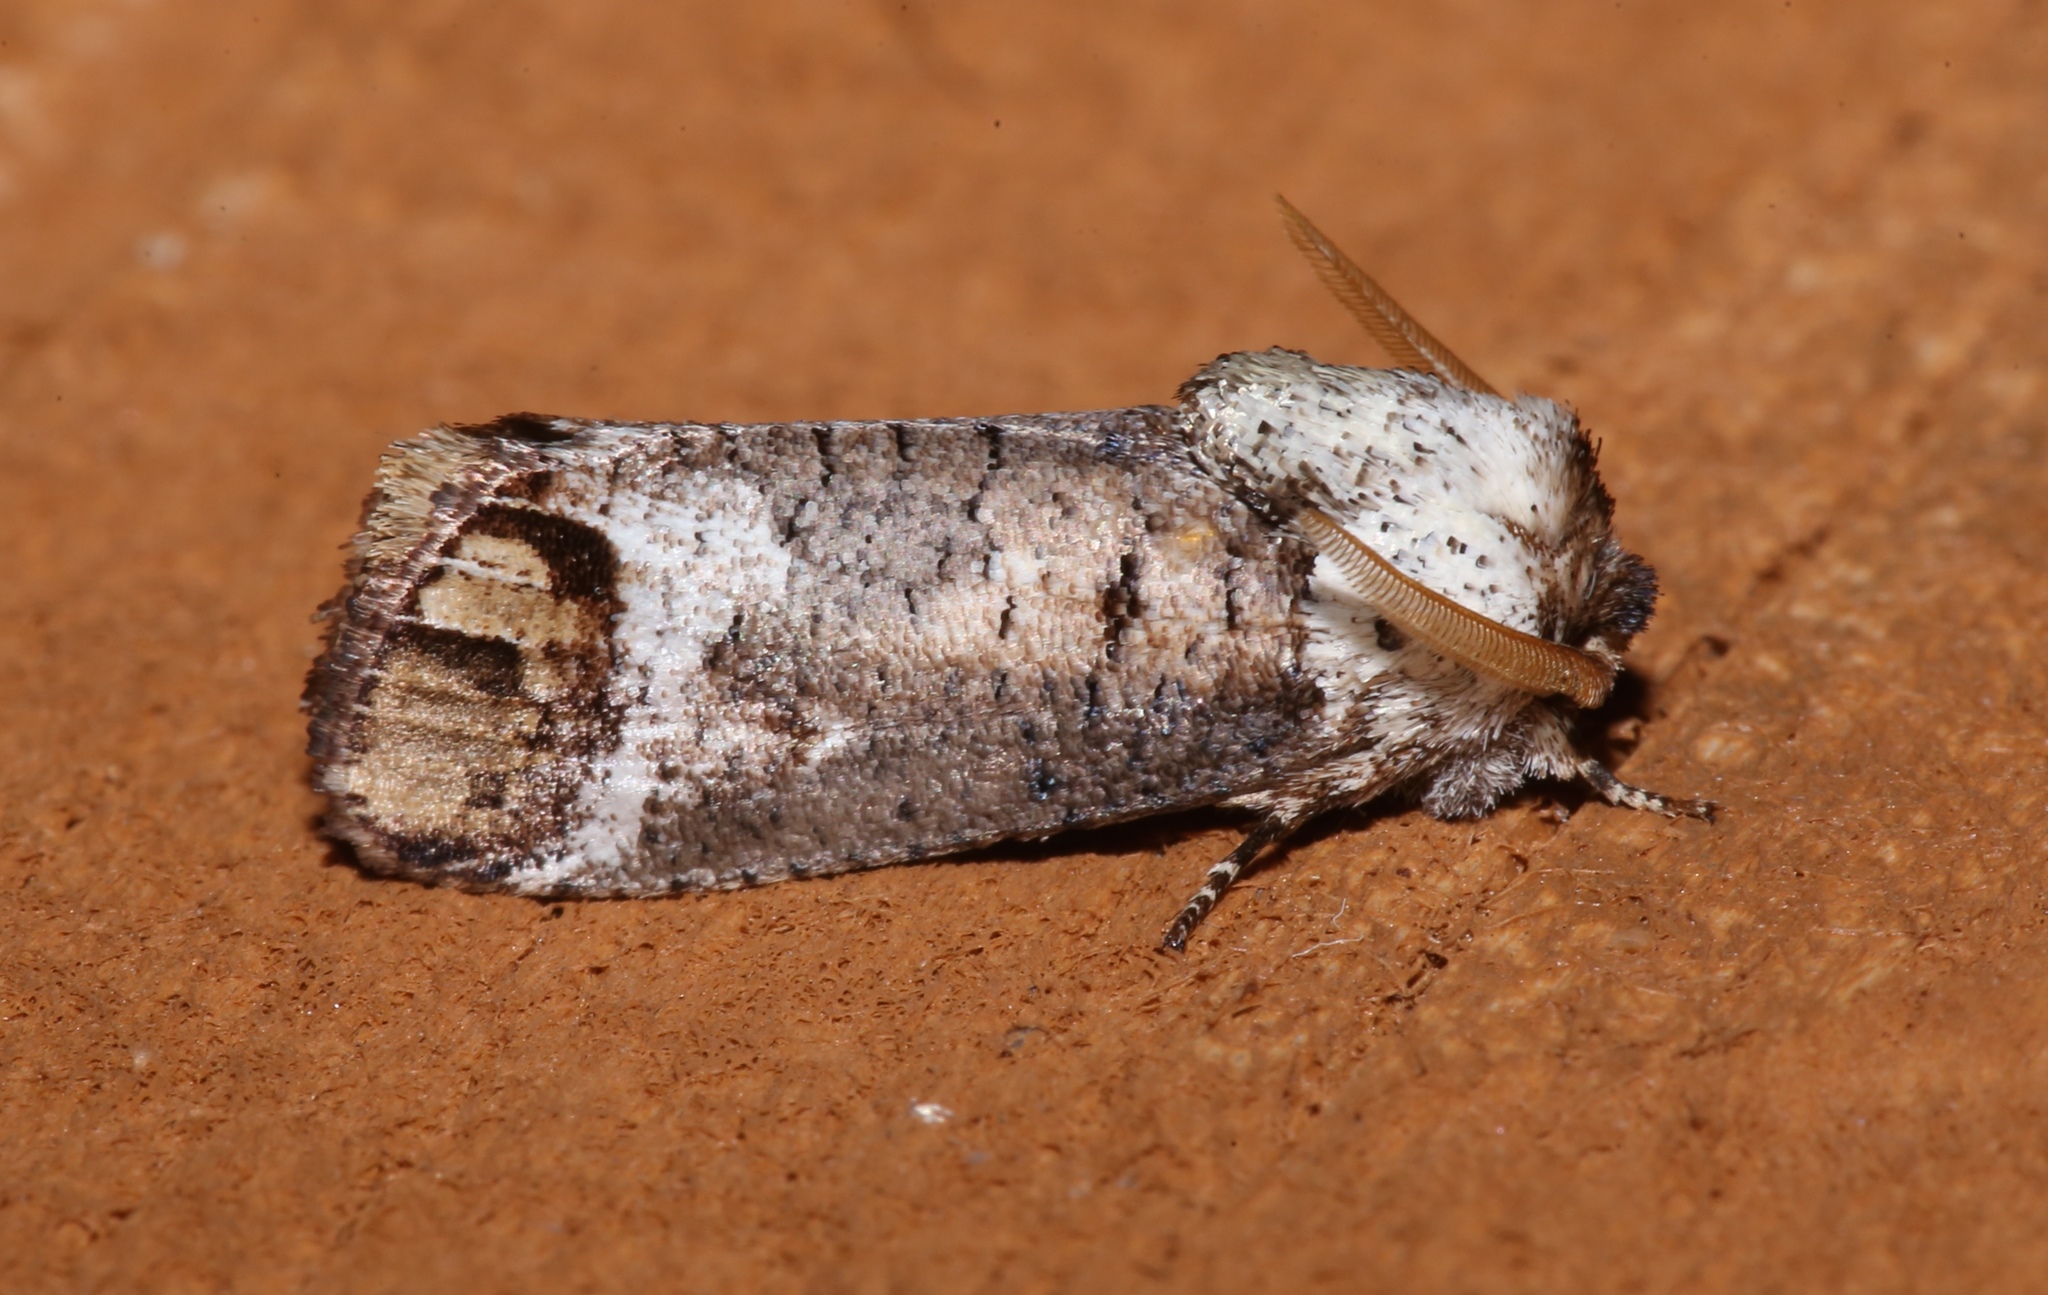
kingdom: Animalia
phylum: Arthropoda
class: Insecta
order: Lepidoptera
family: Cossidae
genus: Cossula
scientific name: Cossula magnifica
